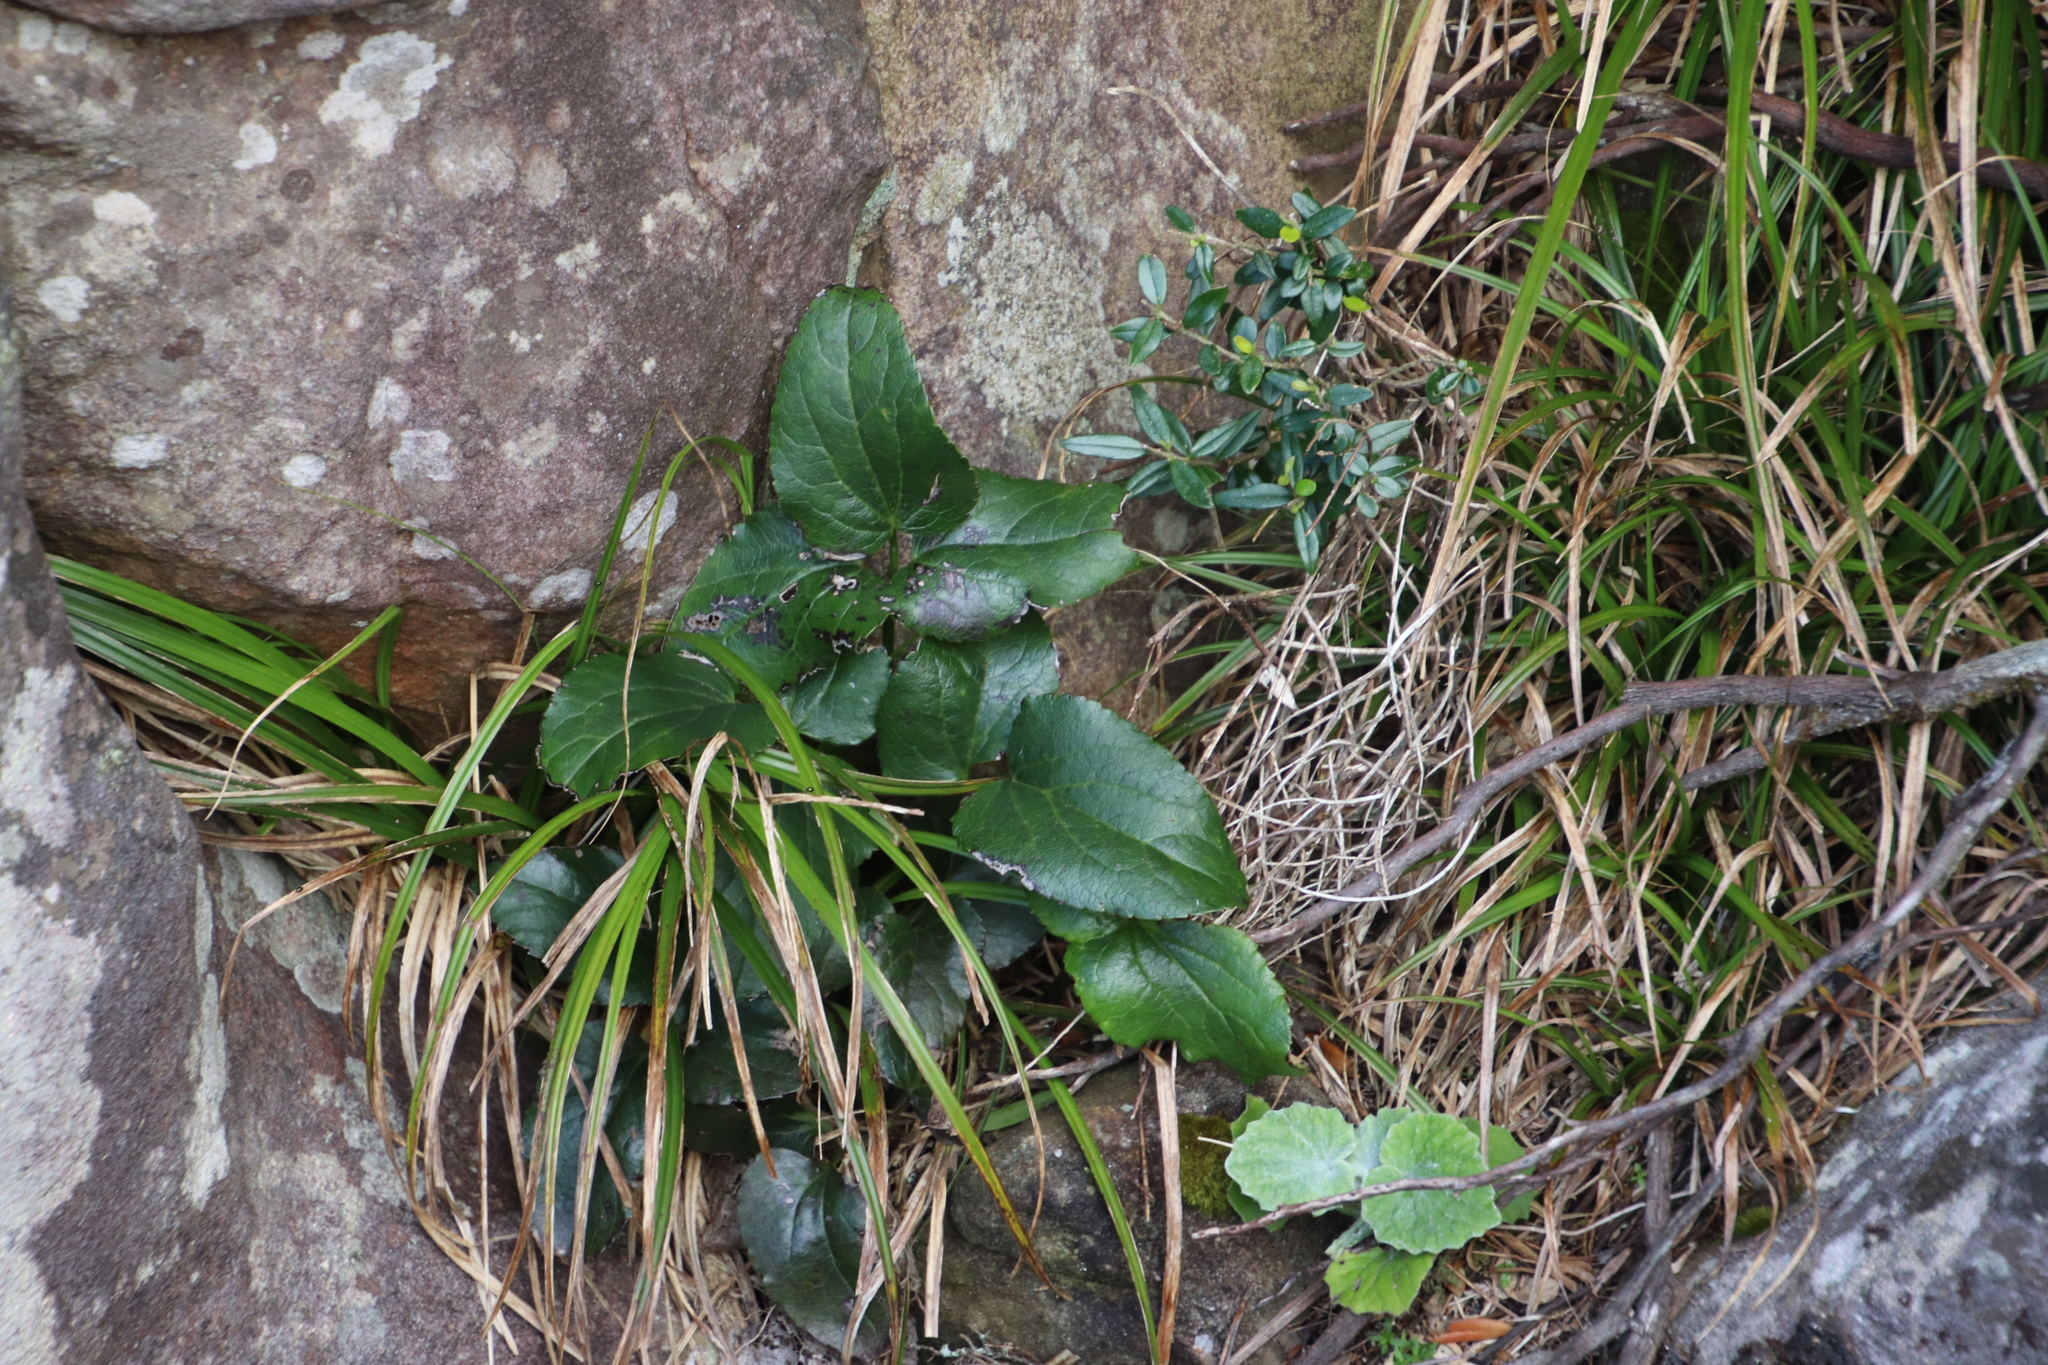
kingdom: Plantae
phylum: Tracheophyta
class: Magnoliopsida
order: Ranunculales
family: Ranunculaceae
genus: Knowltonia
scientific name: Knowltonia vesicatoria
